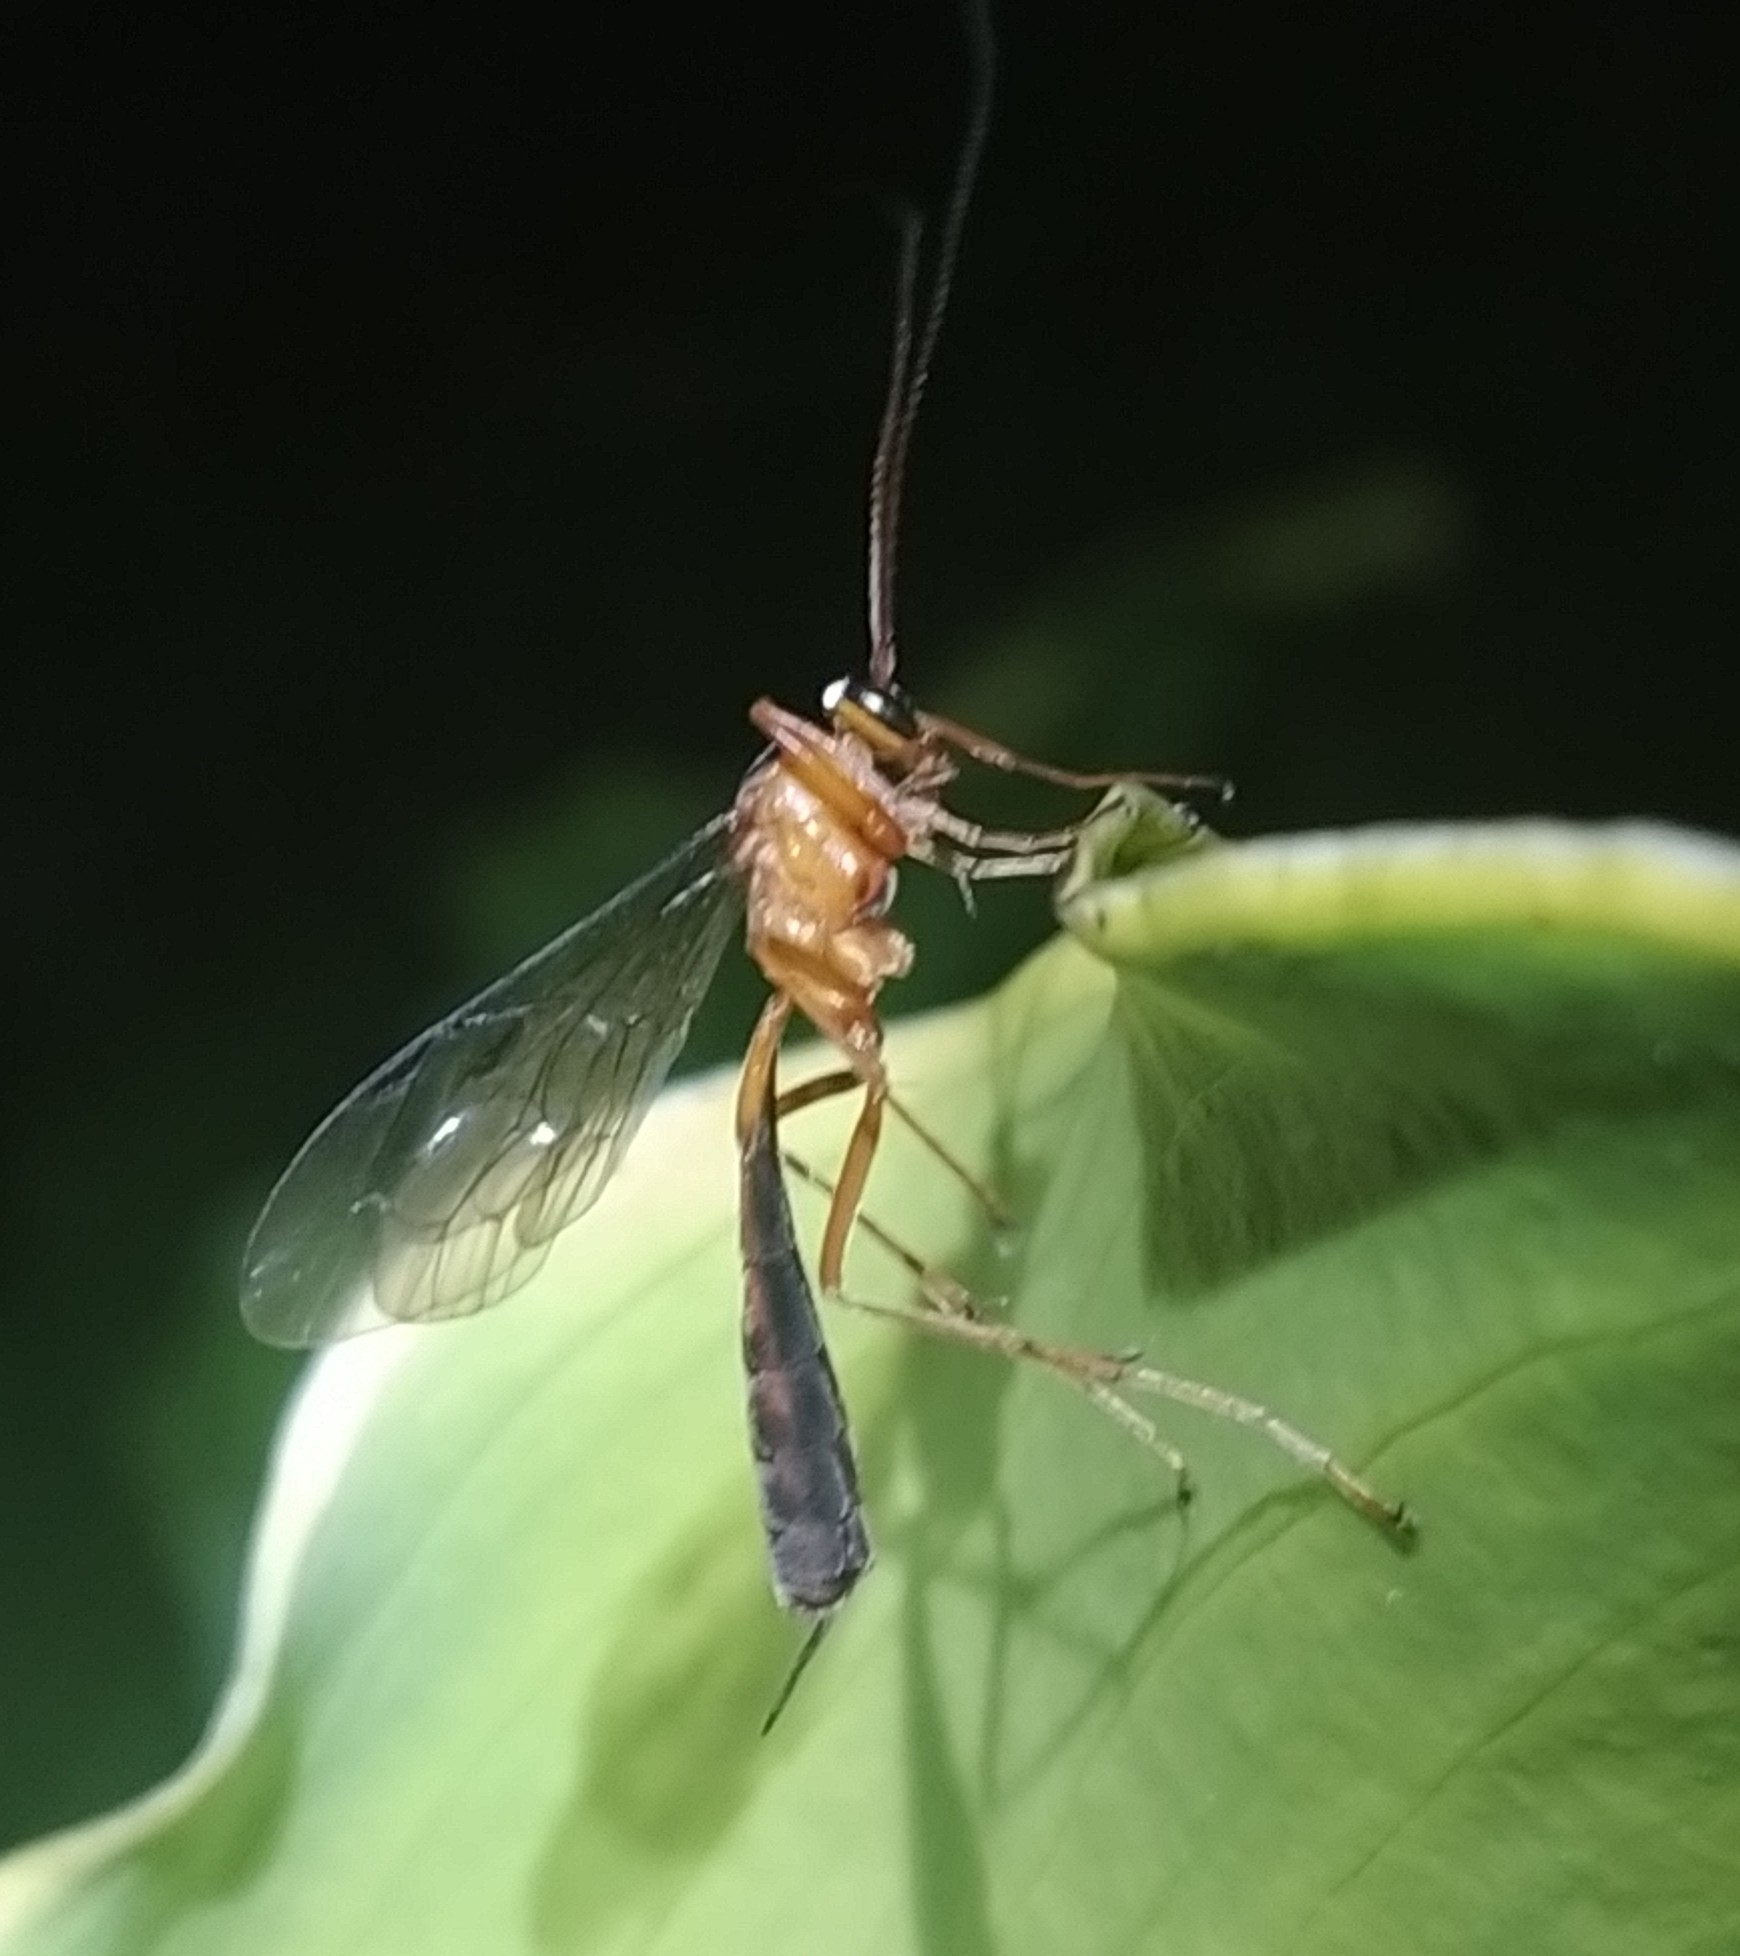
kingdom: Animalia
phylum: Arthropoda
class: Insecta
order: Hymenoptera
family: Ichneumonidae
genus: Netelia
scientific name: Netelia ephippiata
